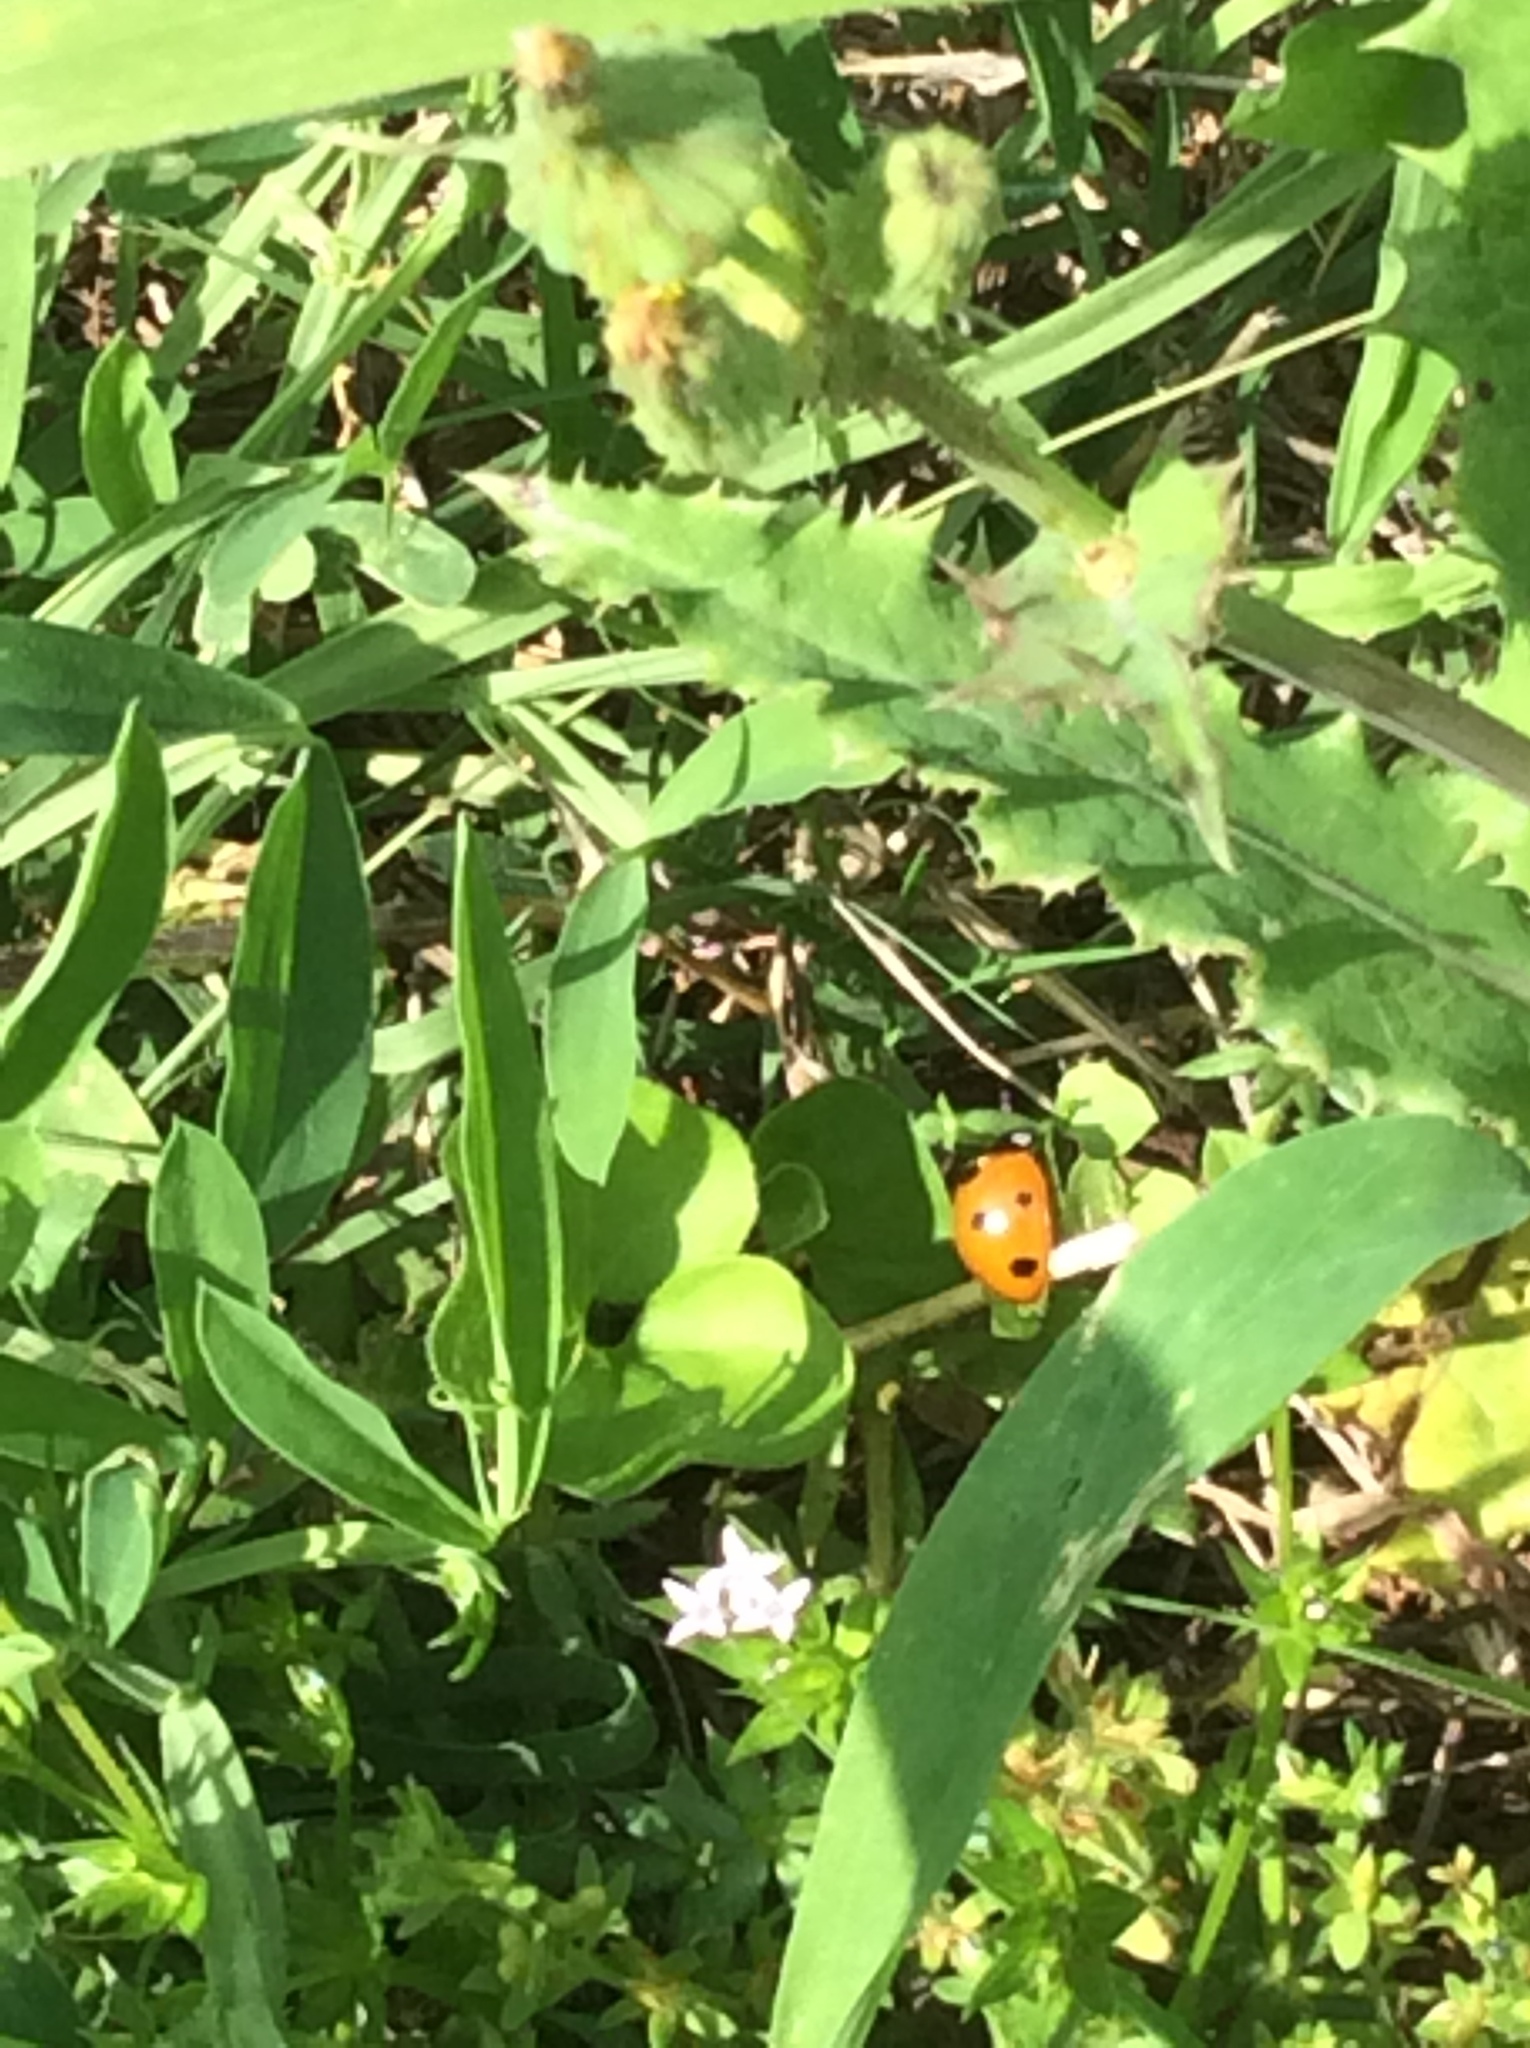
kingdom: Animalia
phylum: Arthropoda
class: Insecta
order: Coleoptera
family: Coccinellidae
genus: Coccinella
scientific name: Coccinella septempunctata
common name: Sevenspotted lady beetle
